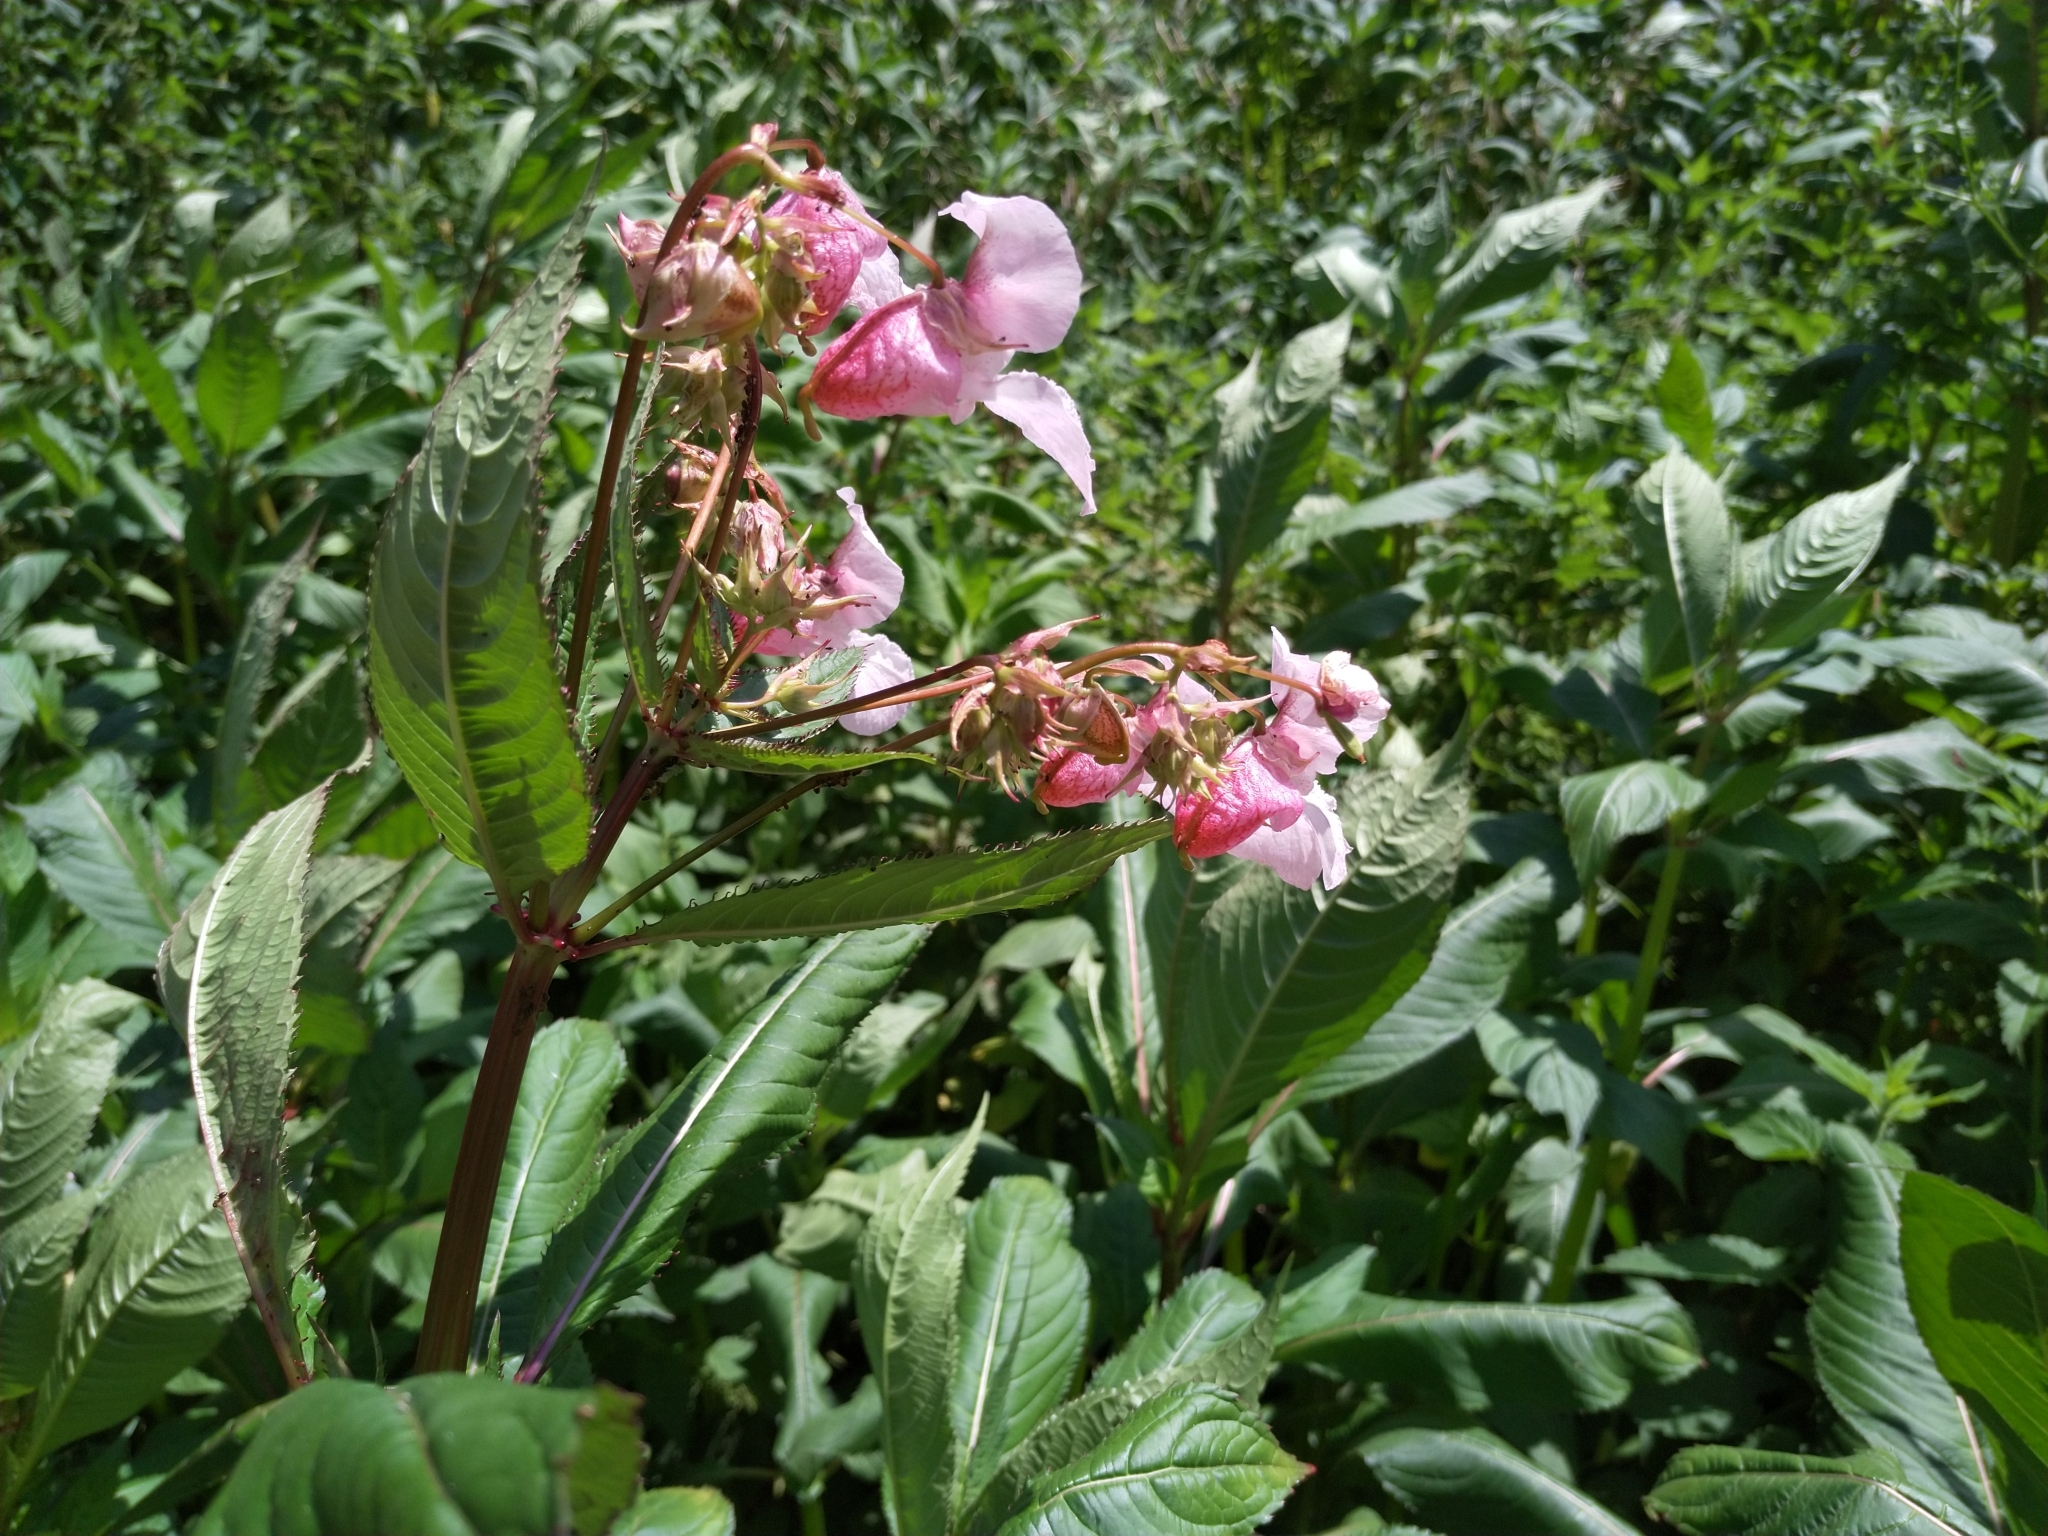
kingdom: Plantae
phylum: Tracheophyta
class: Magnoliopsida
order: Ericales
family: Balsaminaceae
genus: Impatiens
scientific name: Impatiens glandulifera
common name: Himalayan balsam
